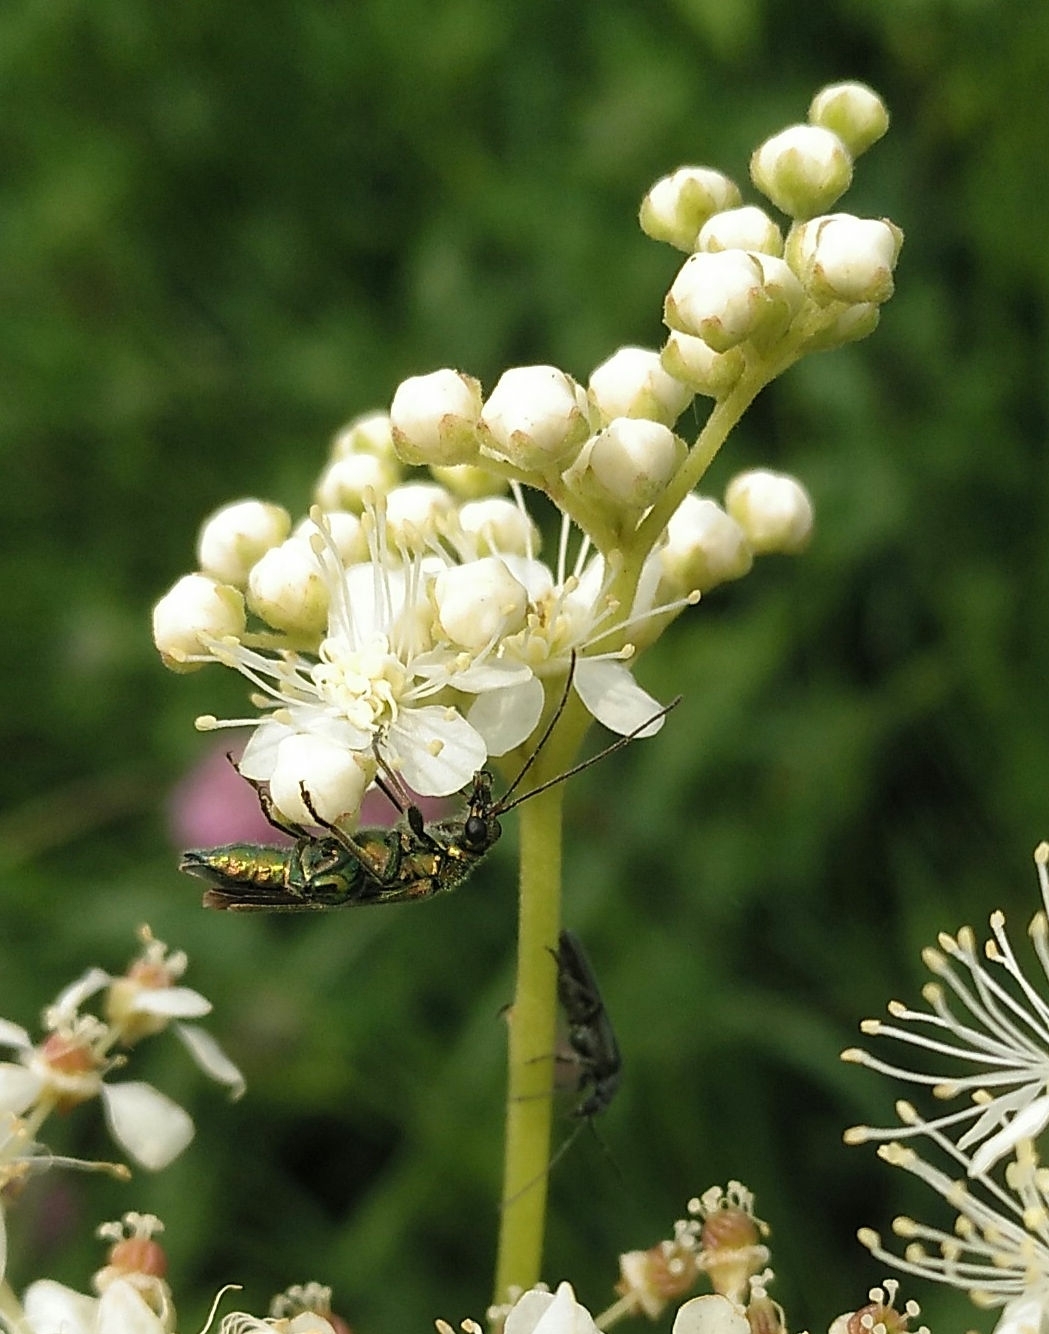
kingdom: Animalia
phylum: Arthropoda
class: Insecta
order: Coleoptera
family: Oedemeridae
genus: Oedemera
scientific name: Oedemera nobilis
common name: Swollen-thighed beetle
